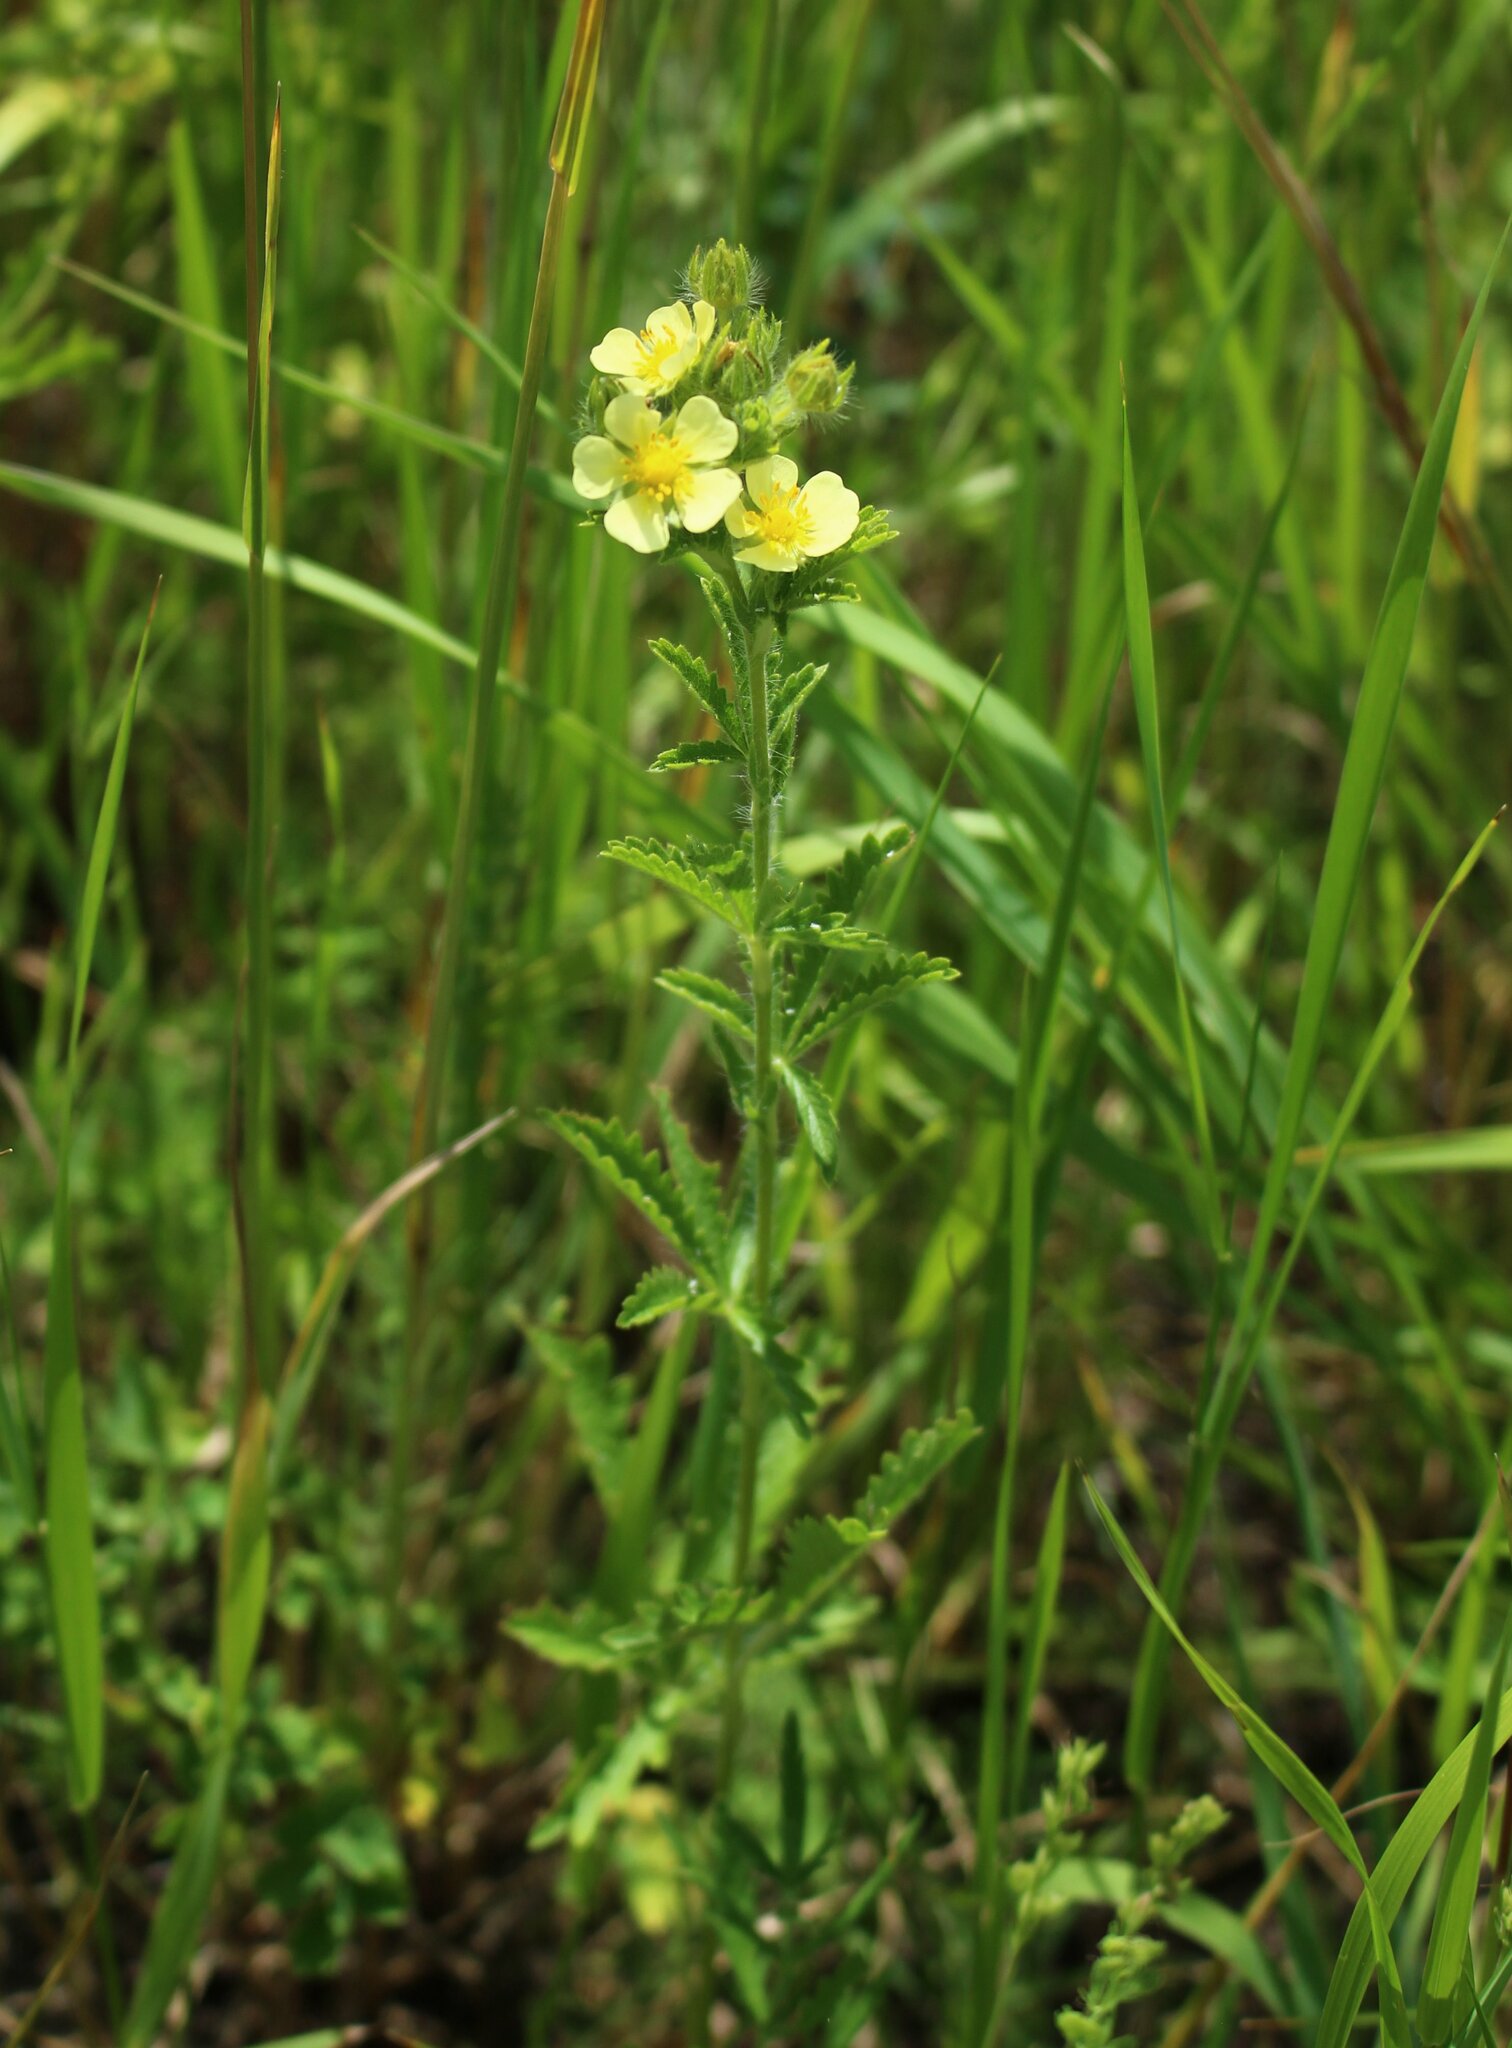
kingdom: Plantae
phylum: Tracheophyta
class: Magnoliopsida
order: Rosales
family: Rosaceae
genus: Potentilla
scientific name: Potentilla recta
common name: Sulphur cinquefoil
